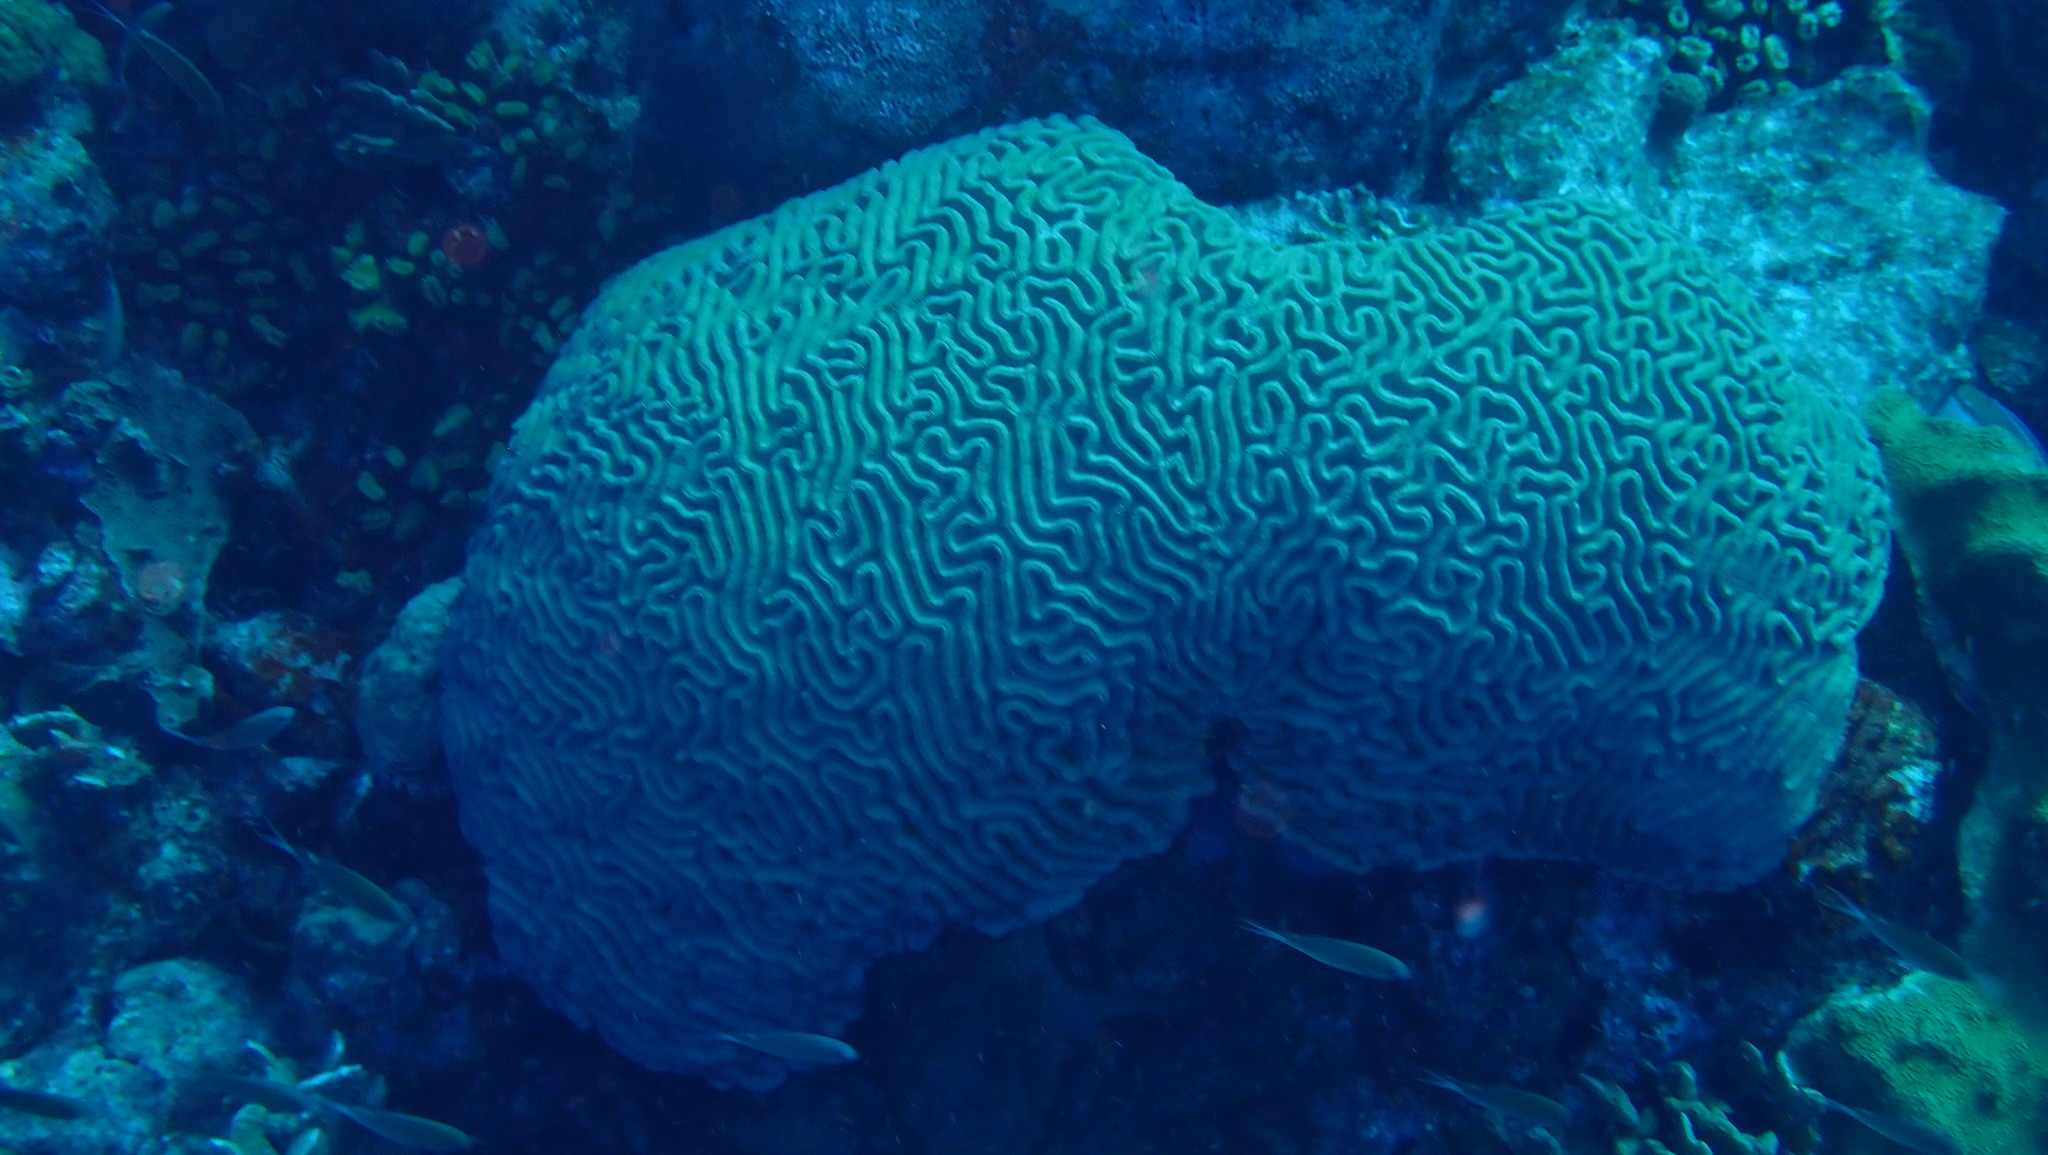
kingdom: Animalia
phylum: Cnidaria
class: Anthozoa
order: Scleractinia
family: Faviidae
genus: Pseudodiploria
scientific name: Pseudodiploria strigosa
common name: Symmetrical brain coral
